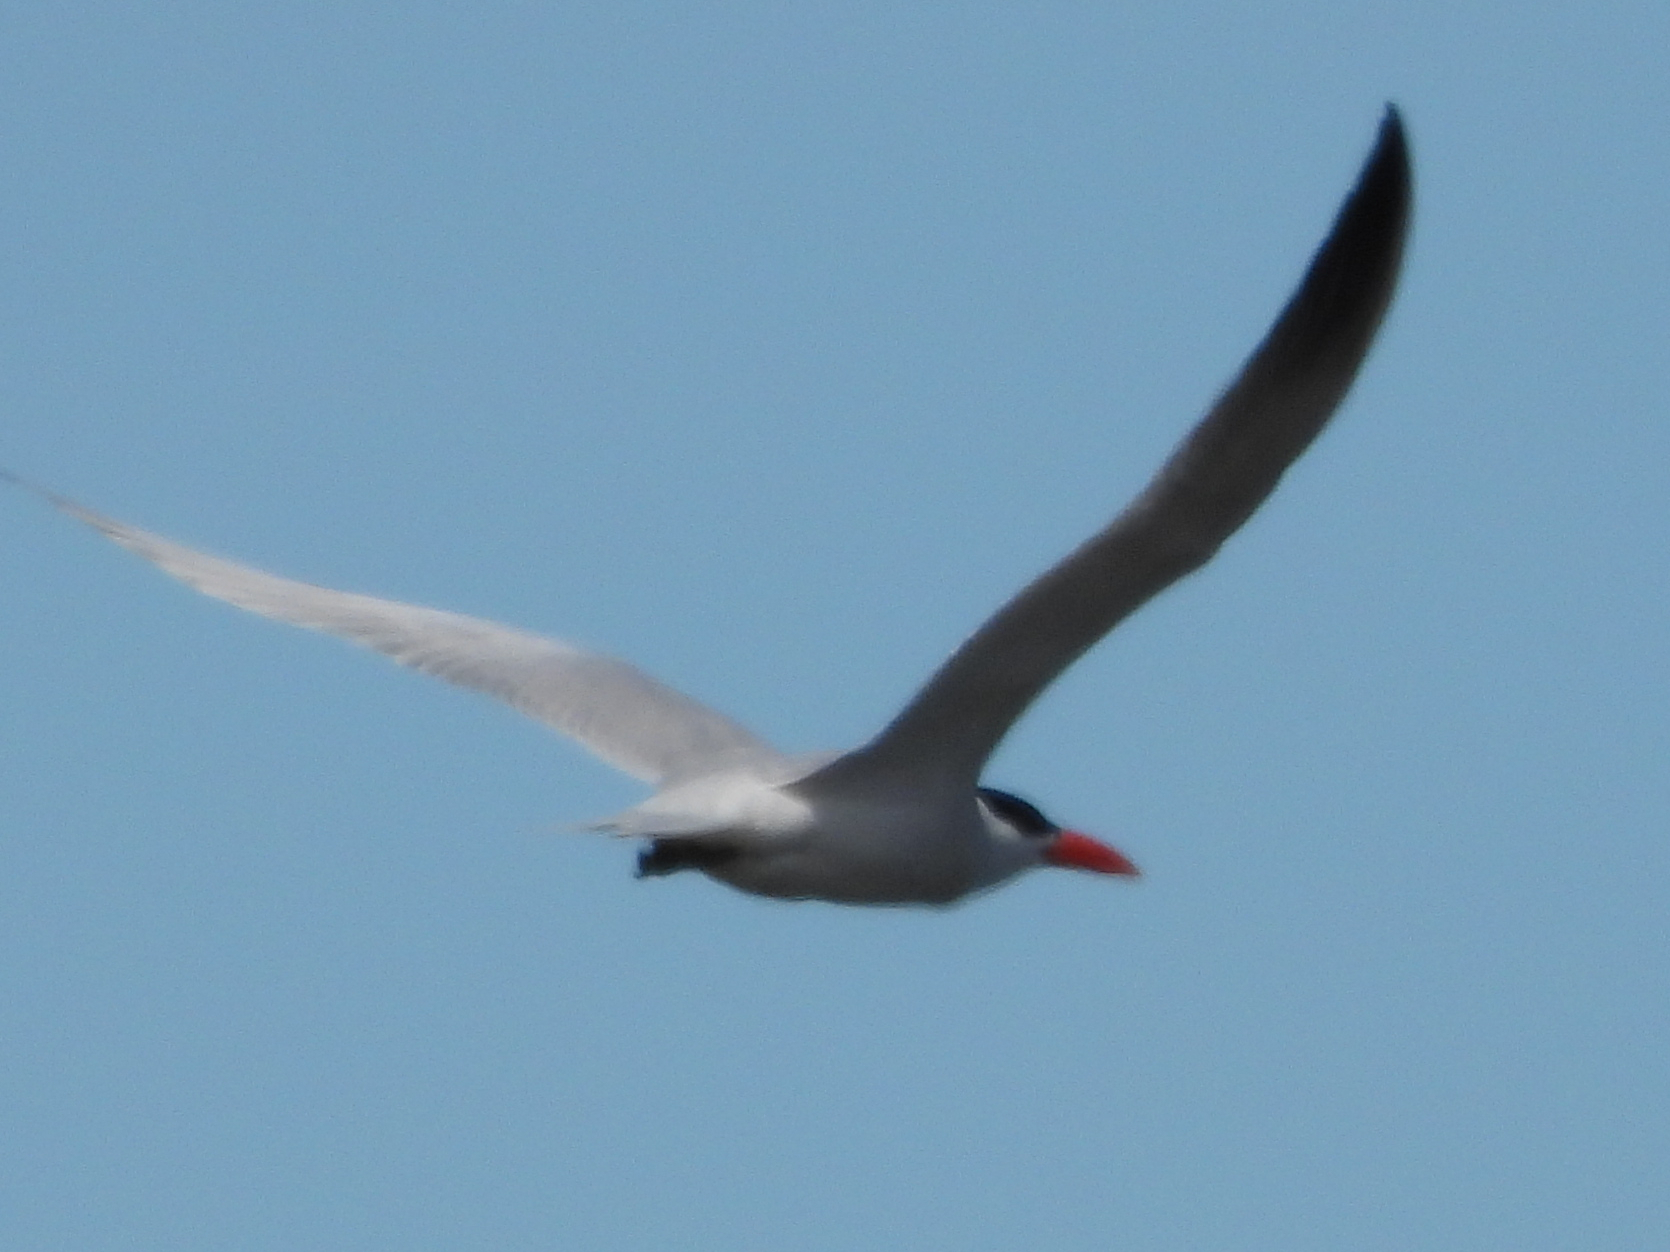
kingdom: Animalia
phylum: Chordata
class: Aves
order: Charadriiformes
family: Laridae
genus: Hydroprogne
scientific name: Hydroprogne caspia
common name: Caspian tern
